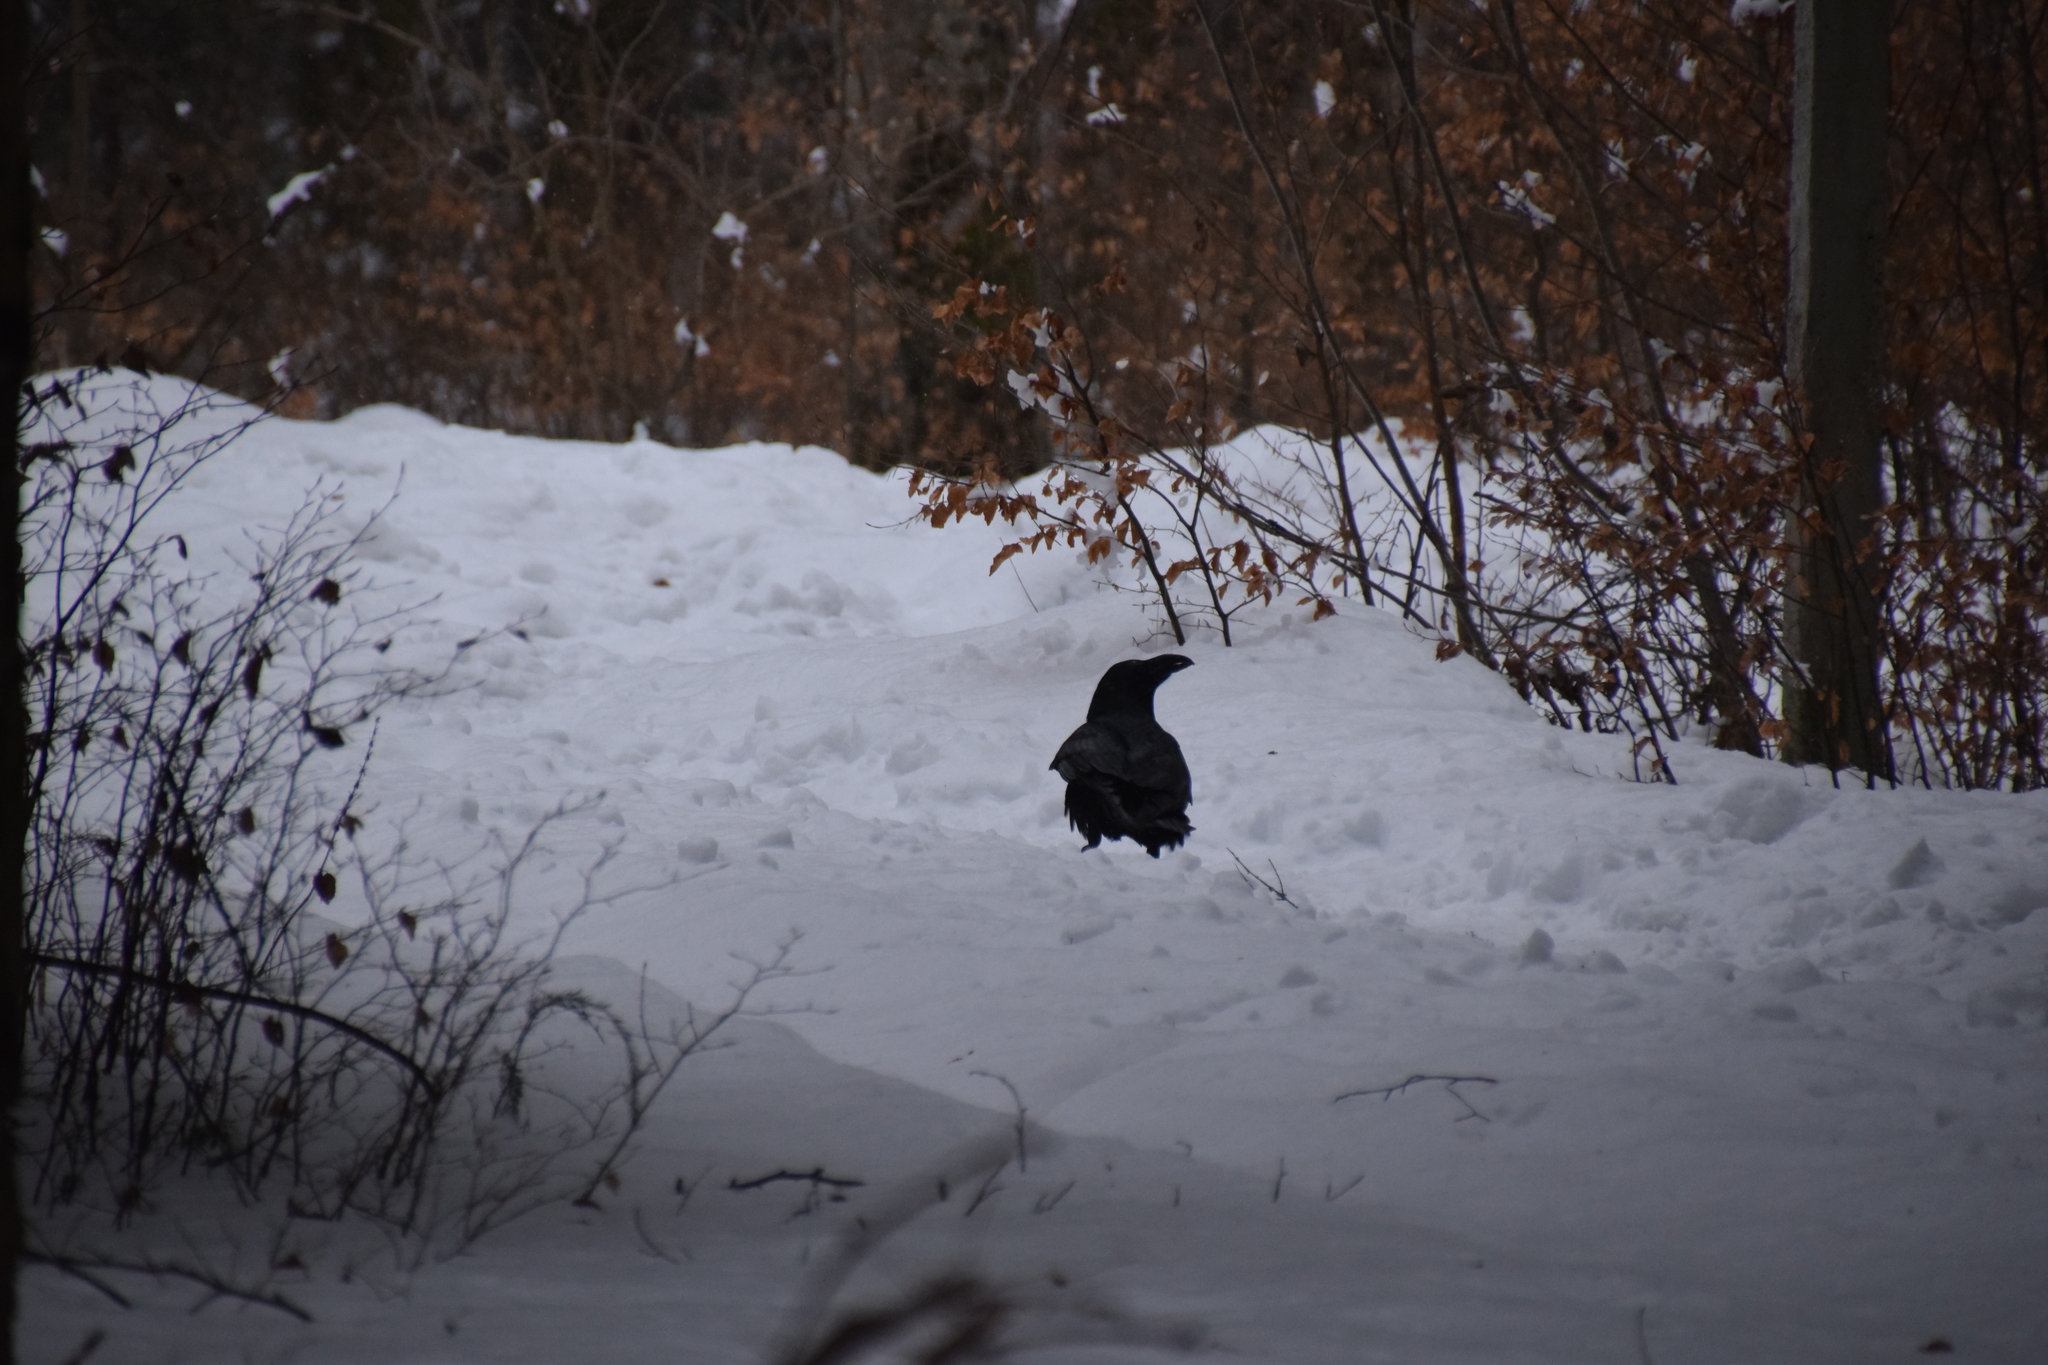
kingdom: Animalia
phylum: Chordata
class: Aves
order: Passeriformes
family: Corvidae
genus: Corvus
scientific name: Corvus corax
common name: Common raven
